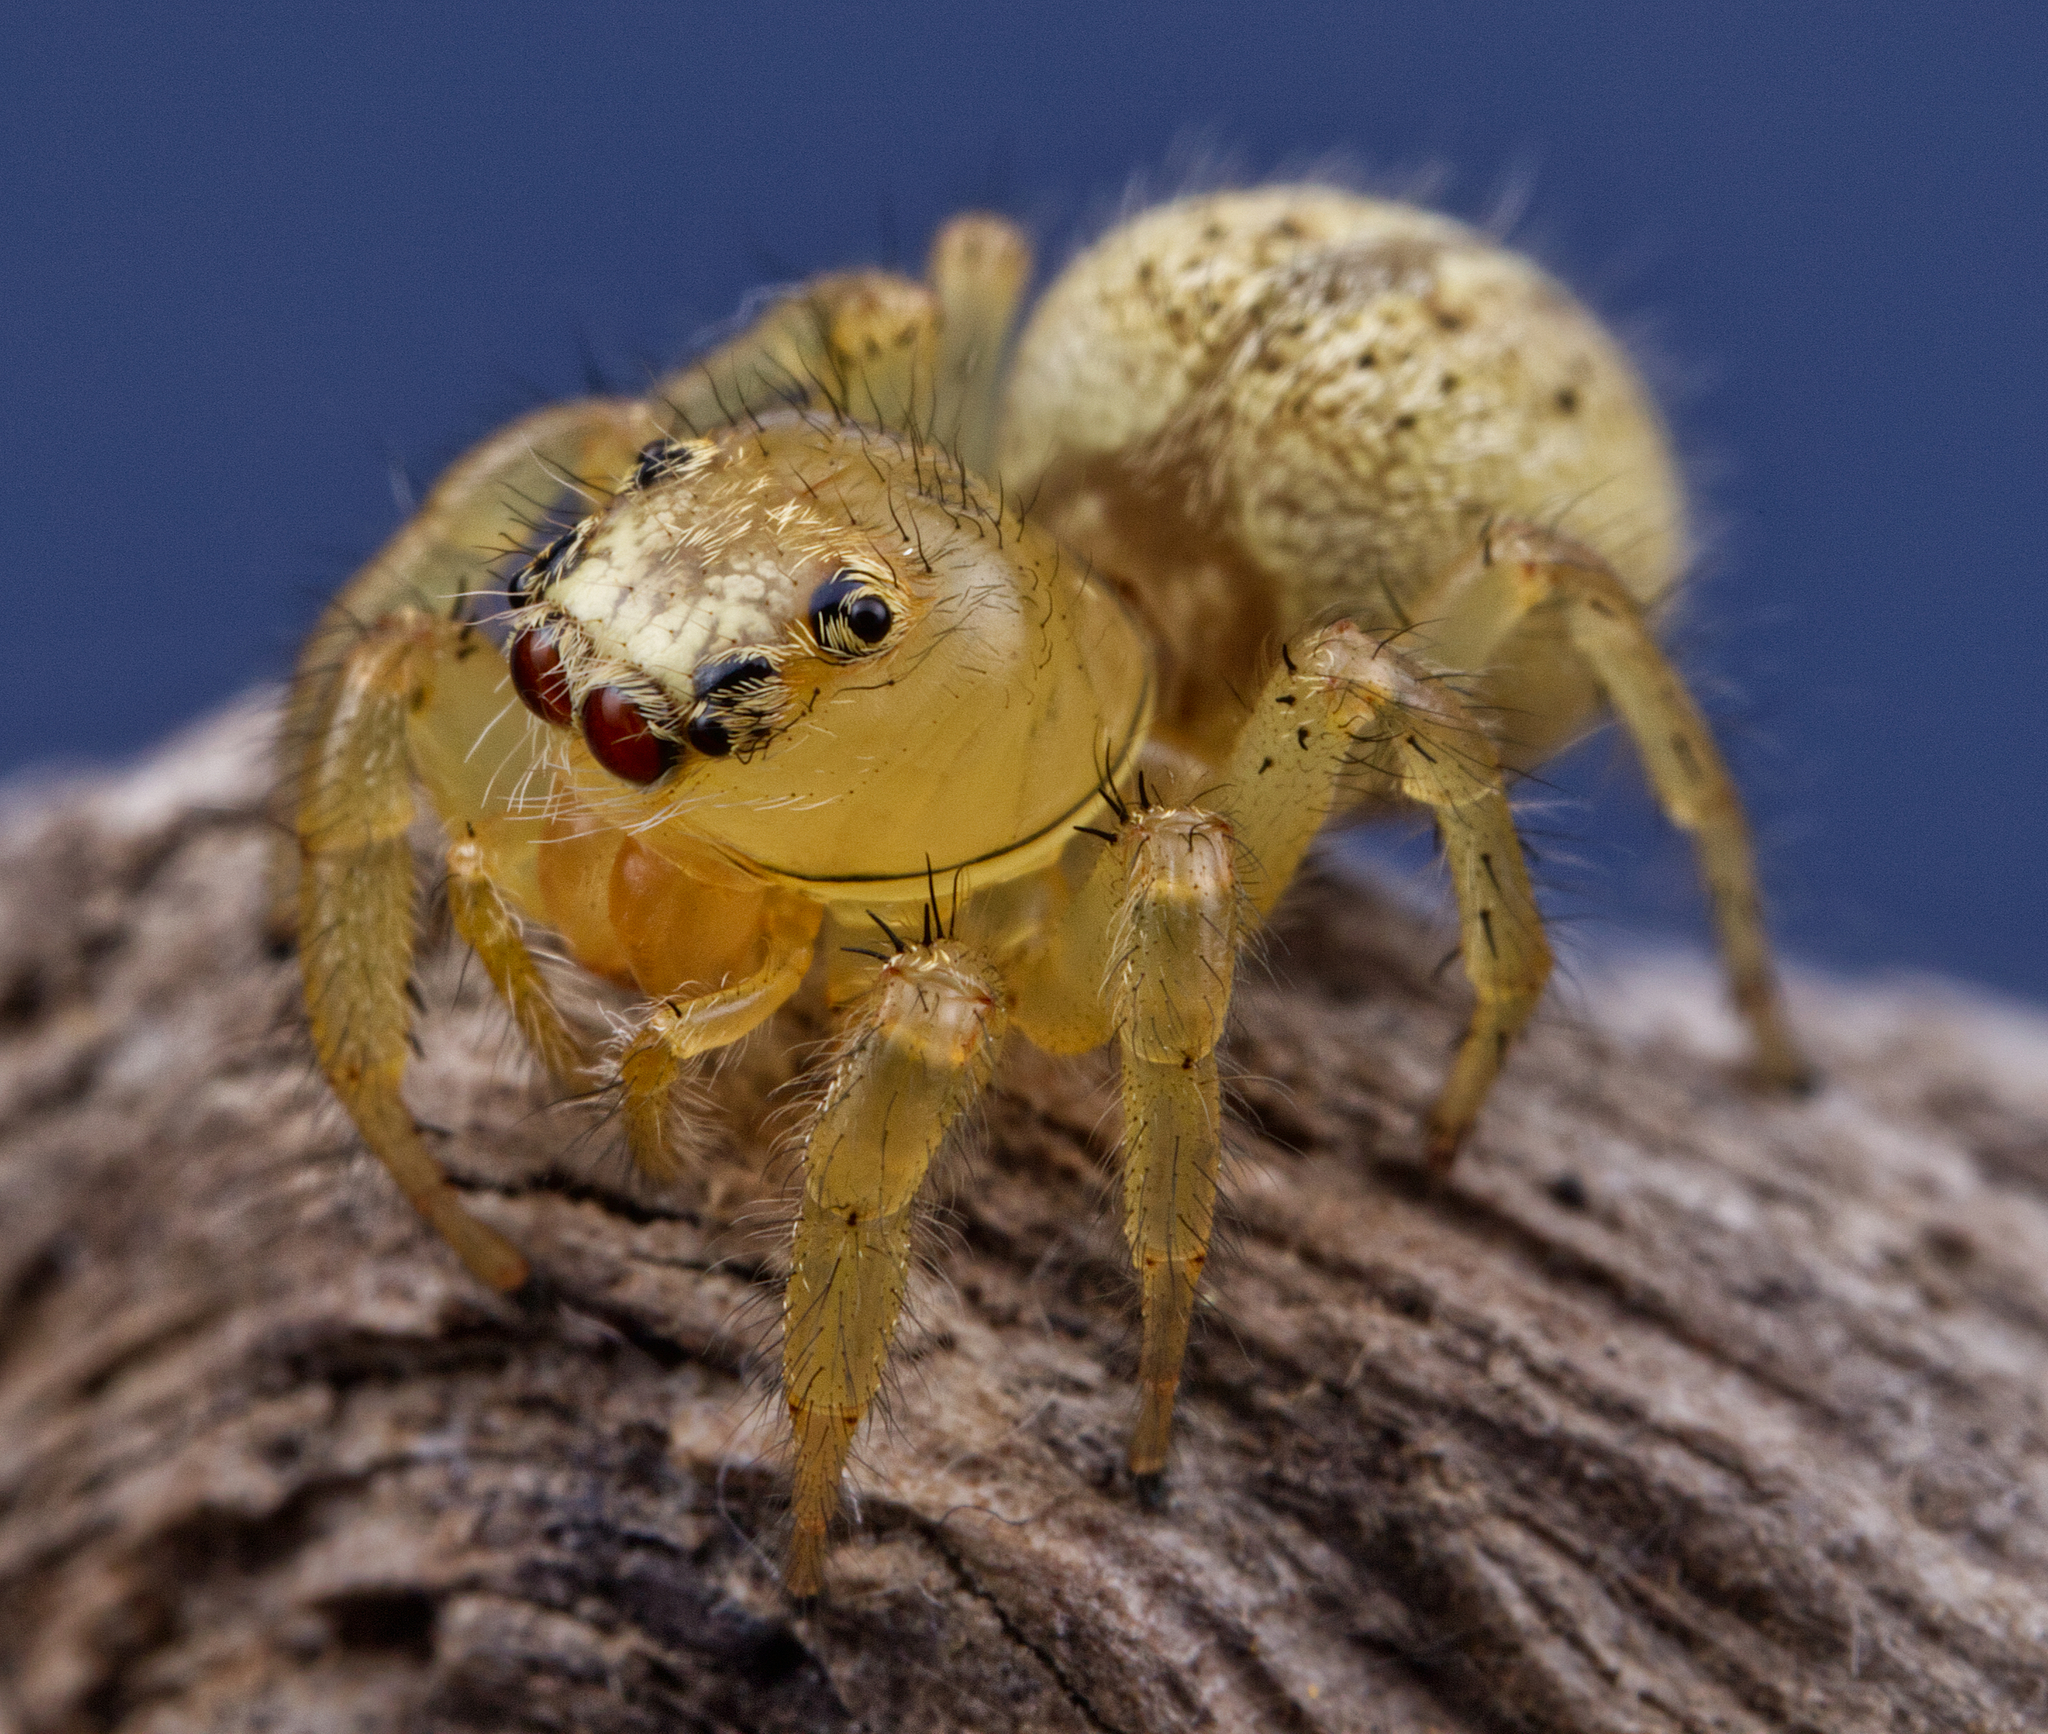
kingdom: Animalia
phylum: Arthropoda
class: Arachnida
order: Araneae
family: Salticidae
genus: Colonus
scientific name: Colonus puerperus
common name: Jumping spiders
